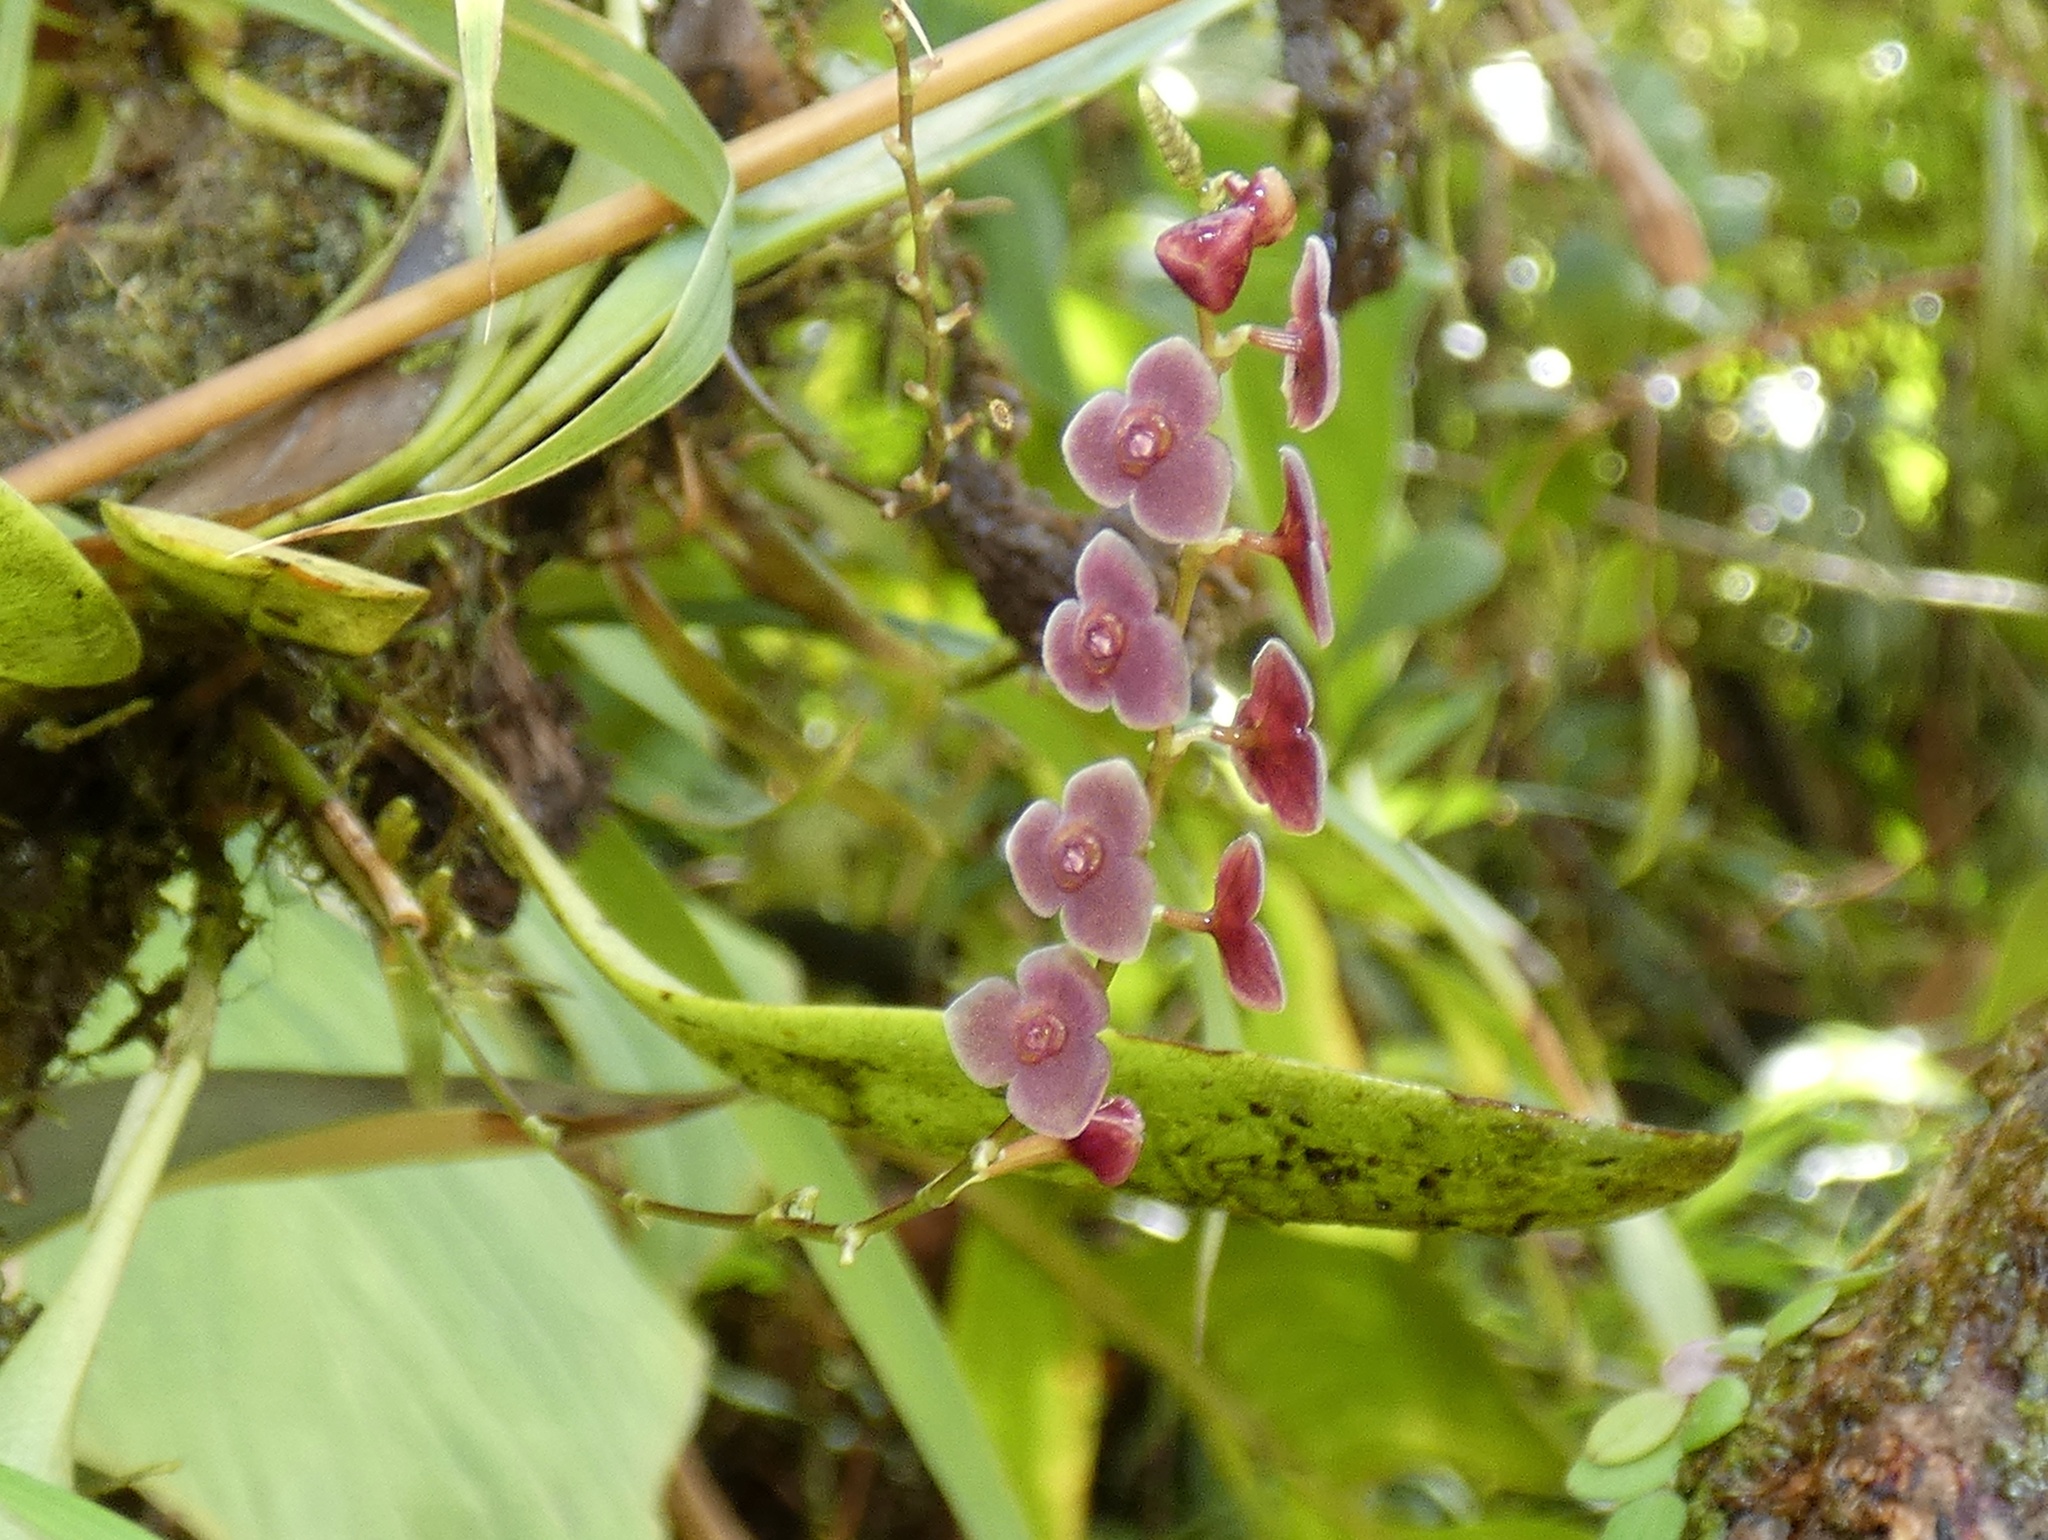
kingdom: Plantae
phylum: Tracheophyta
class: Liliopsida
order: Asparagales
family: Orchidaceae
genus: Stelis
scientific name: Stelis argentata
